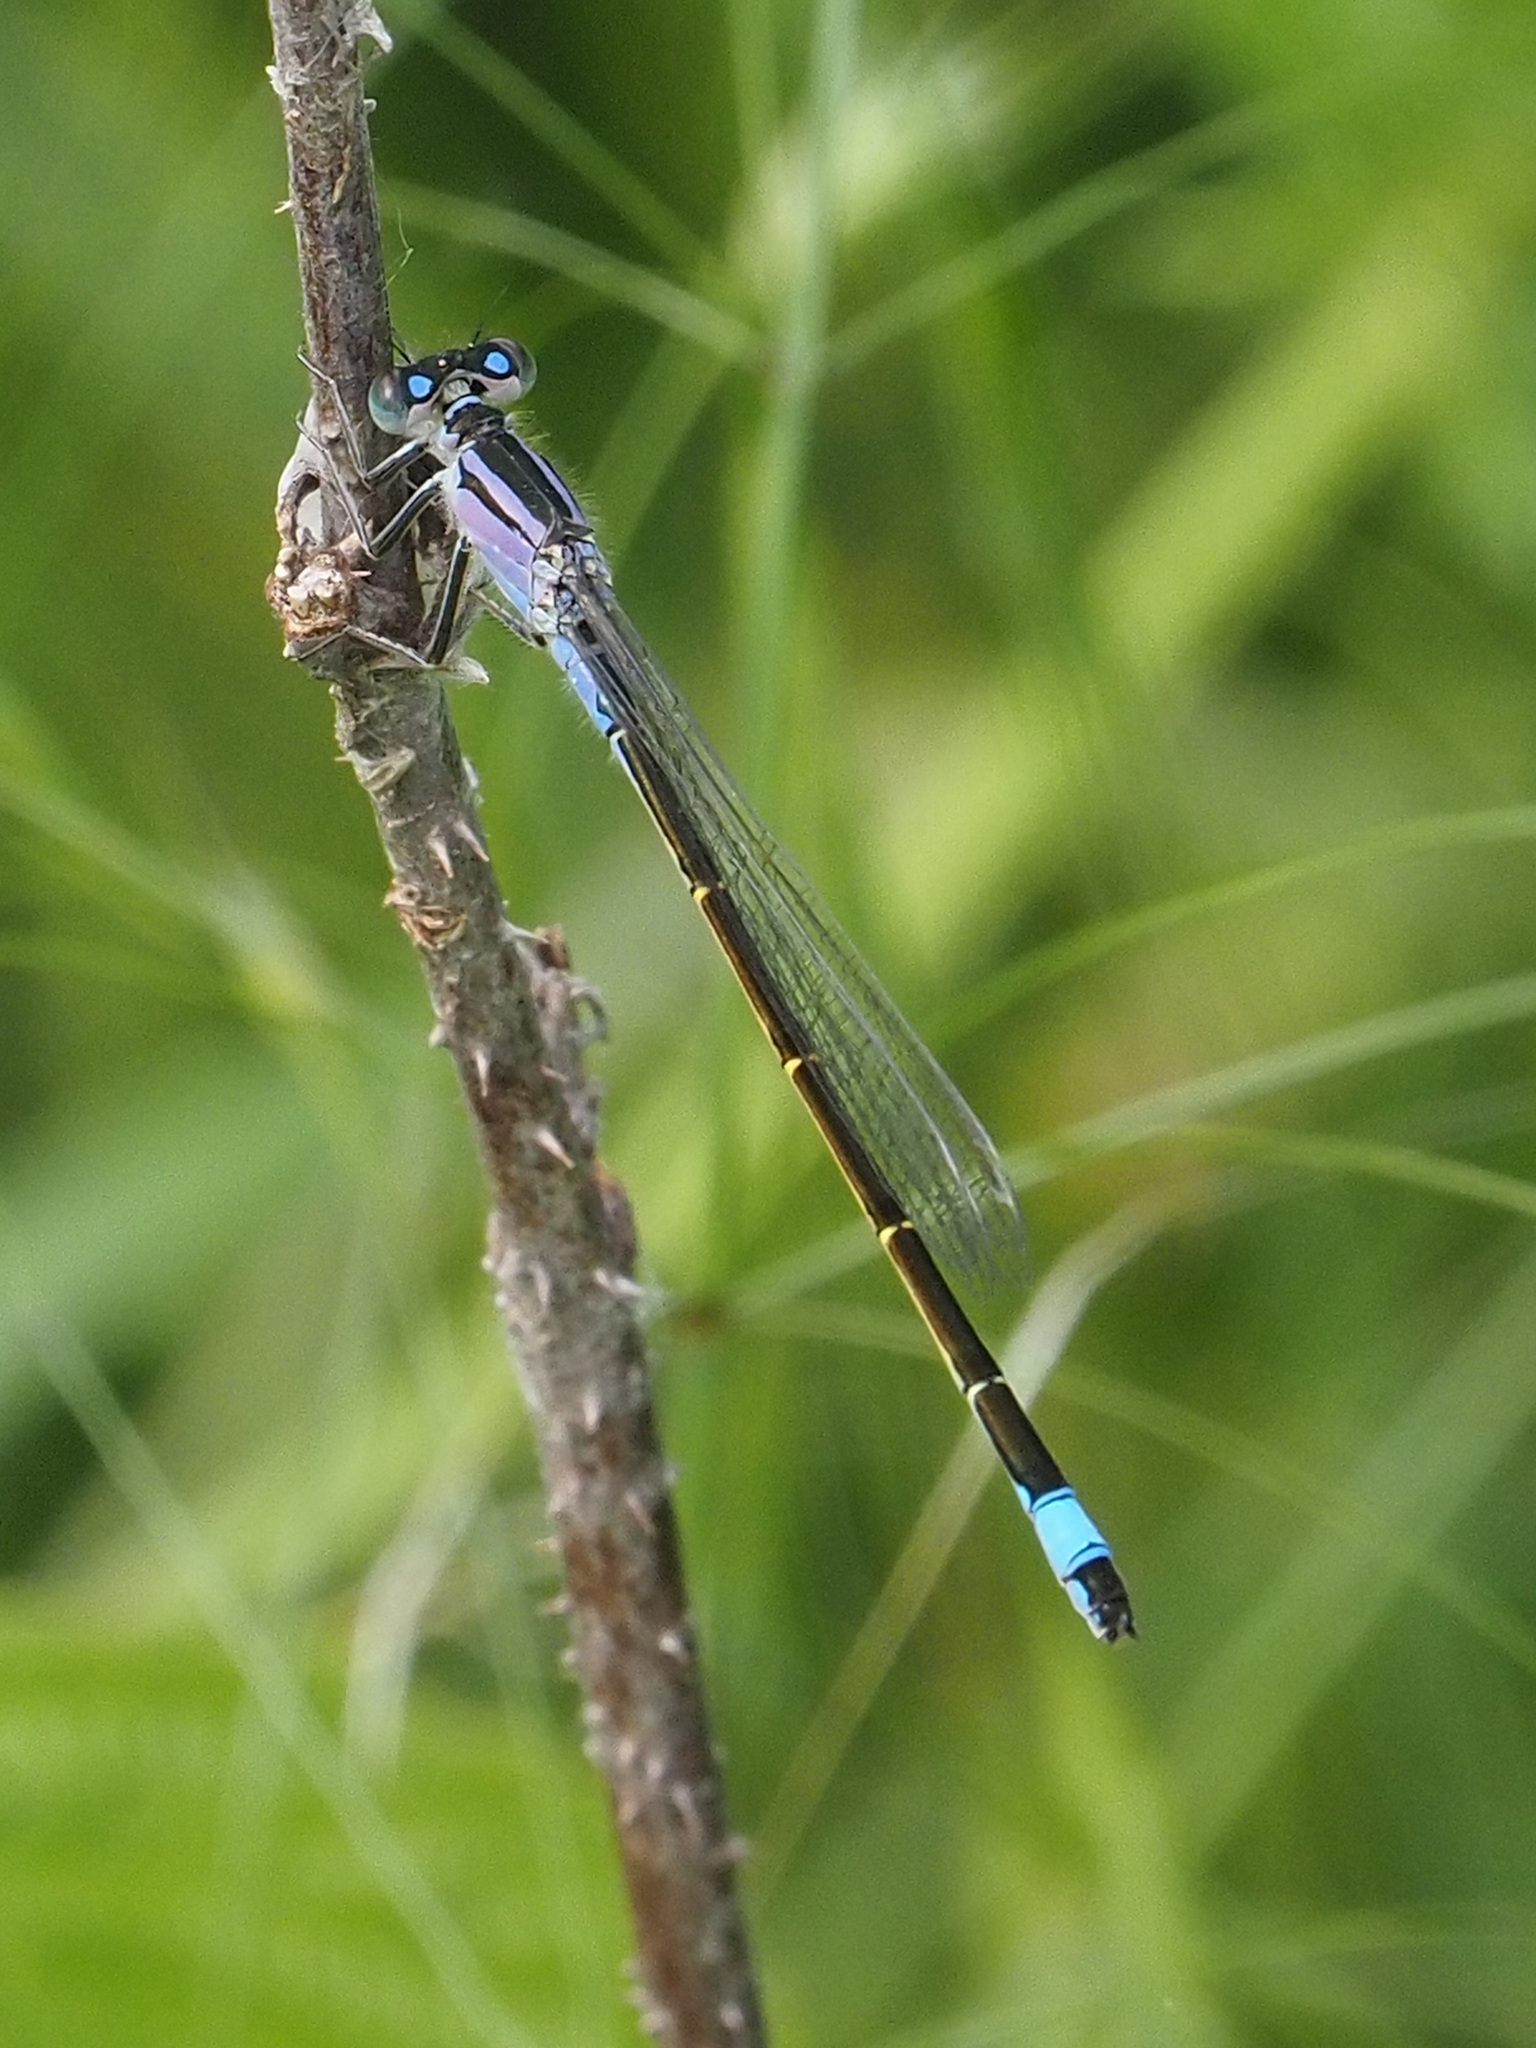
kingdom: Animalia
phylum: Arthropoda
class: Insecta
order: Odonata
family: Coenagrionidae
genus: Ischnura
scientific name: Ischnura elegans
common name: Blue-tailed damselfly
